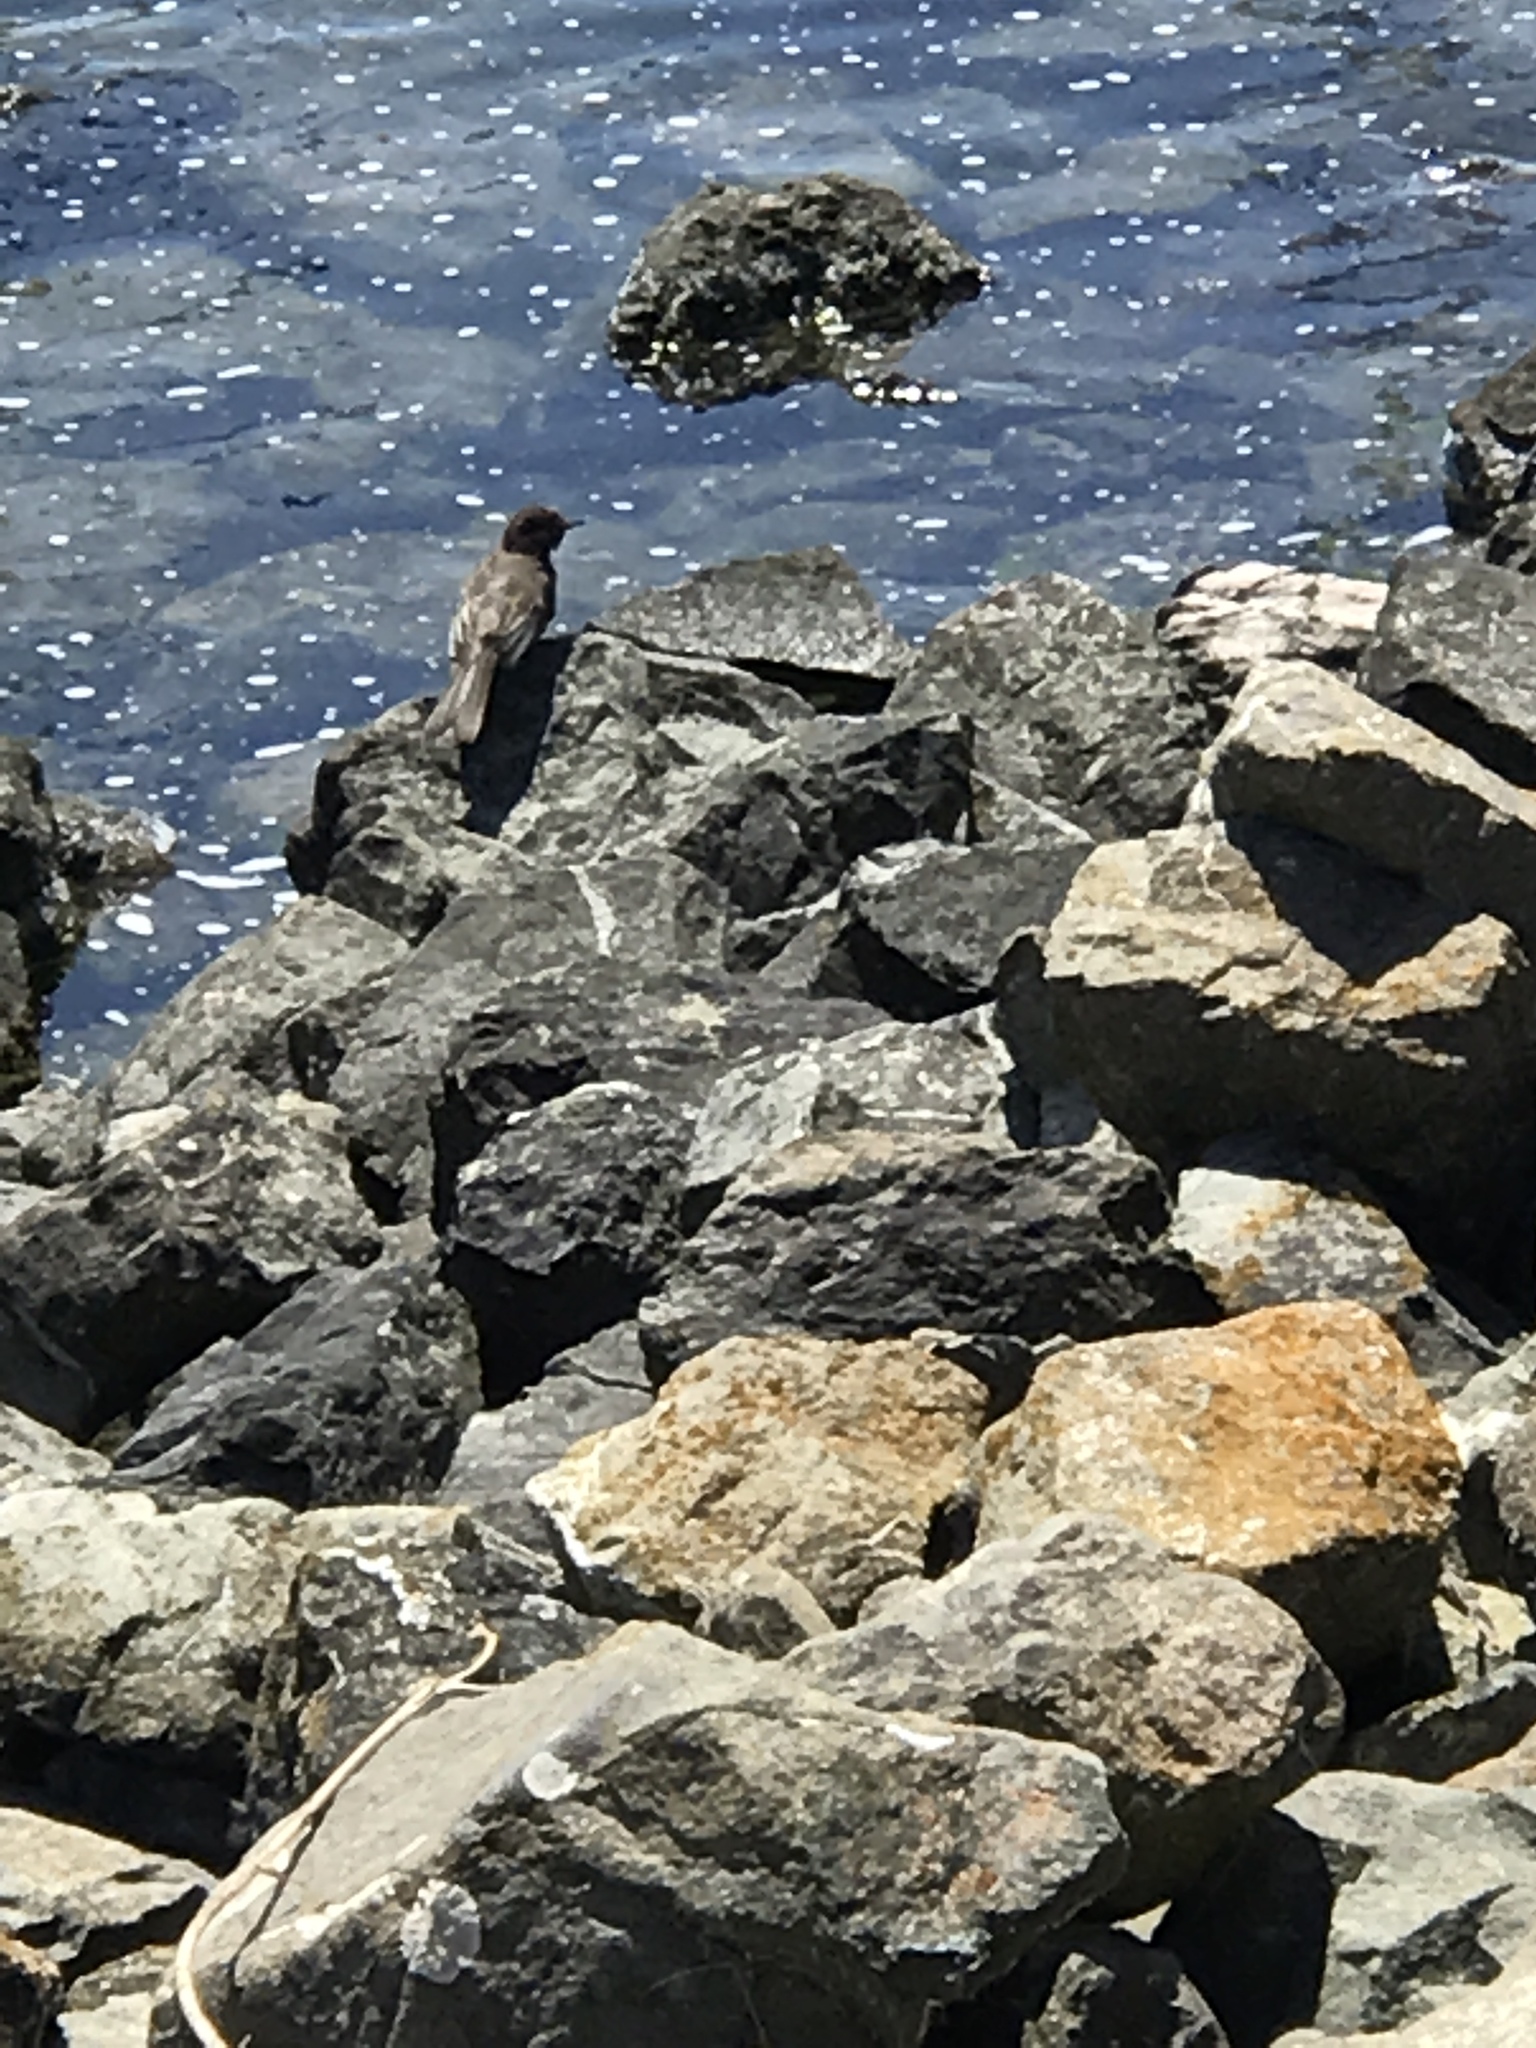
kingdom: Animalia
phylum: Chordata
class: Aves
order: Passeriformes
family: Tyrannidae
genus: Sayornis
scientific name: Sayornis nigricans
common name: Black phoebe
